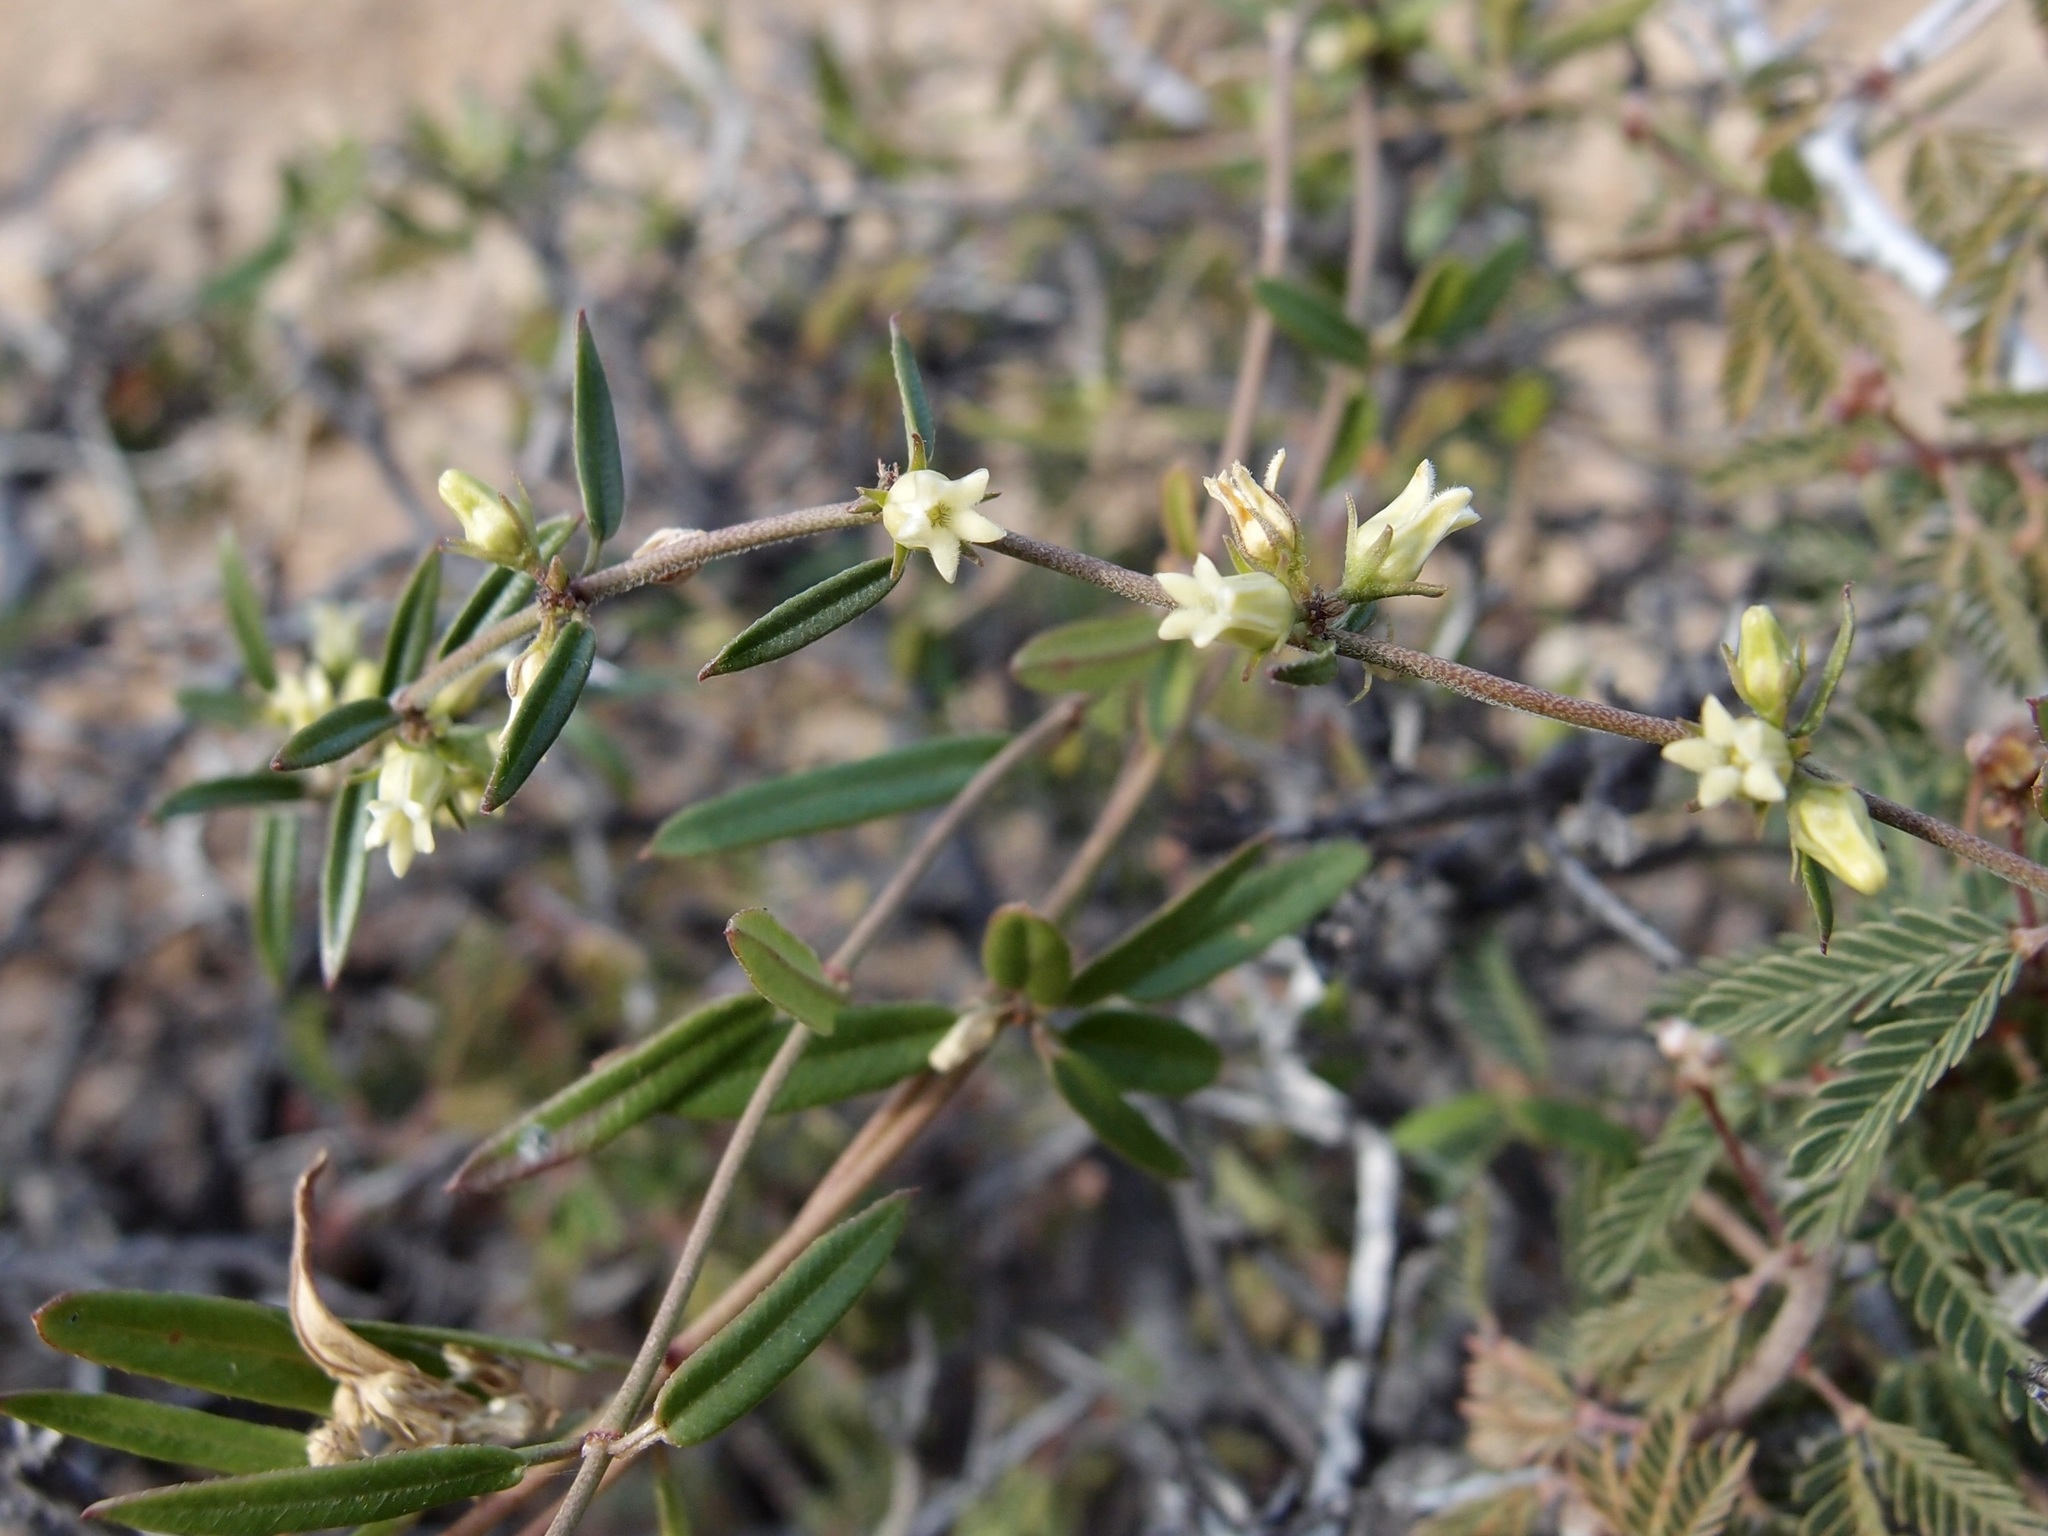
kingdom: Plantae
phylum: Tracheophyta
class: Magnoliopsida
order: Gentianales
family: Apocynaceae
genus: Metastelma
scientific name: Metastelma arizonicum
